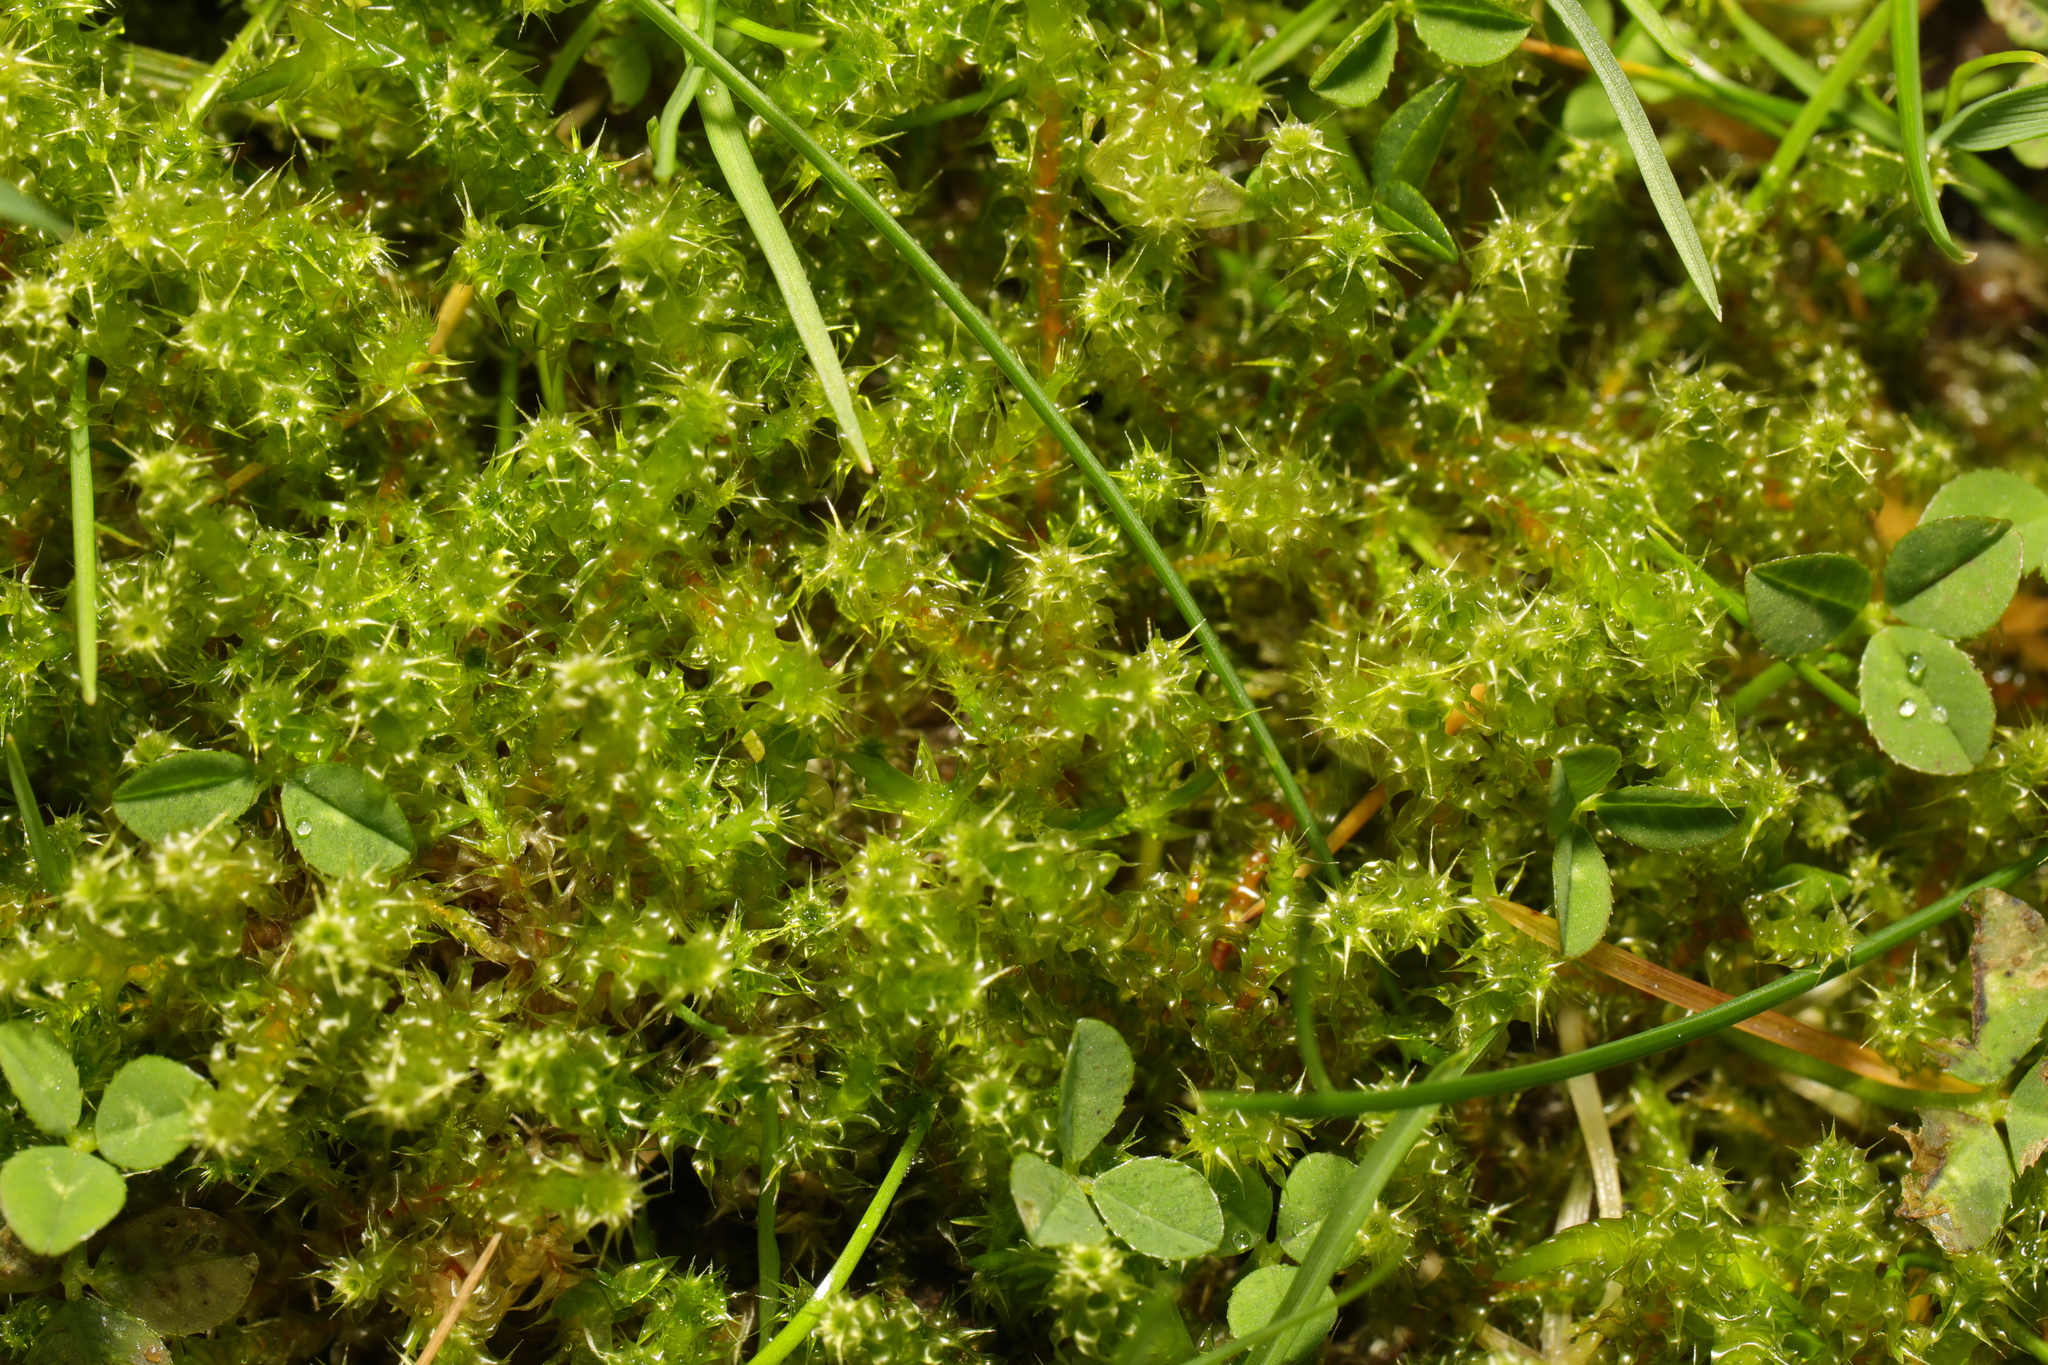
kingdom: Plantae
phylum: Bryophyta
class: Bryopsida
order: Hypnales
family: Hylocomiaceae
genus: Rhytidiadelphus
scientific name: Rhytidiadelphus squarrosus
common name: Springy turf-moss
